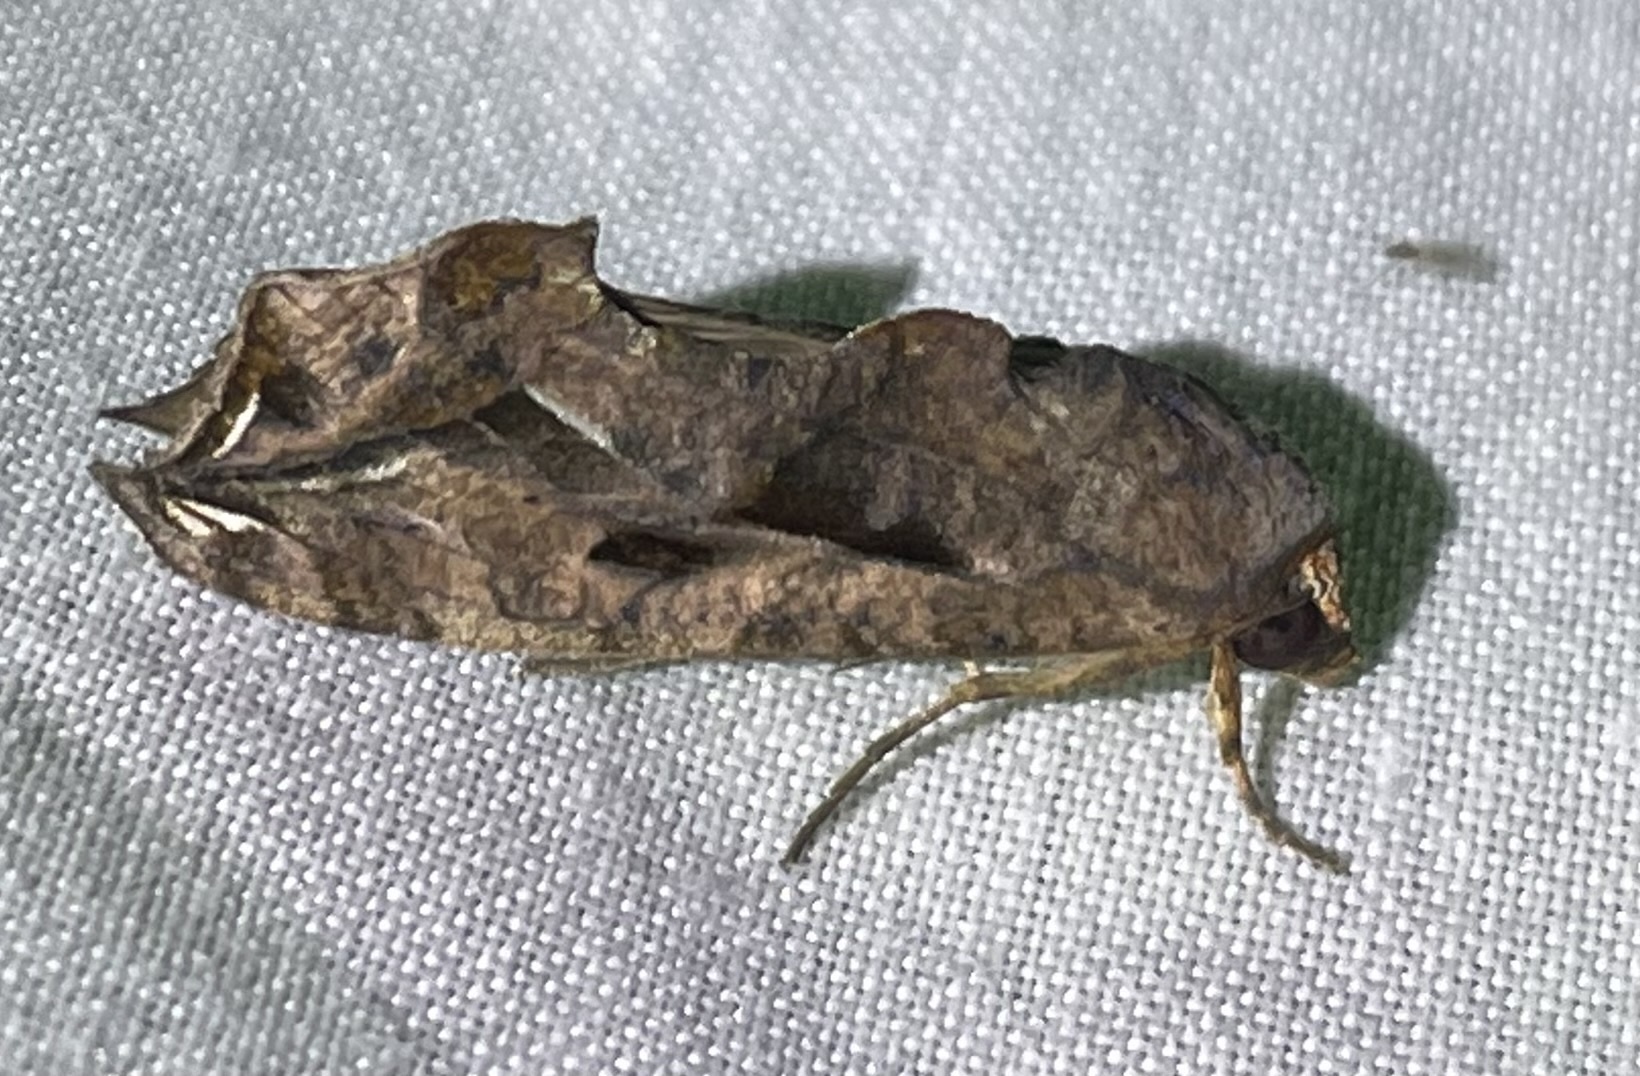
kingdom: Animalia
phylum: Arthropoda
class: Insecta
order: Lepidoptera
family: Erebidae
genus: Oraesia
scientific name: Oraesia provocans
